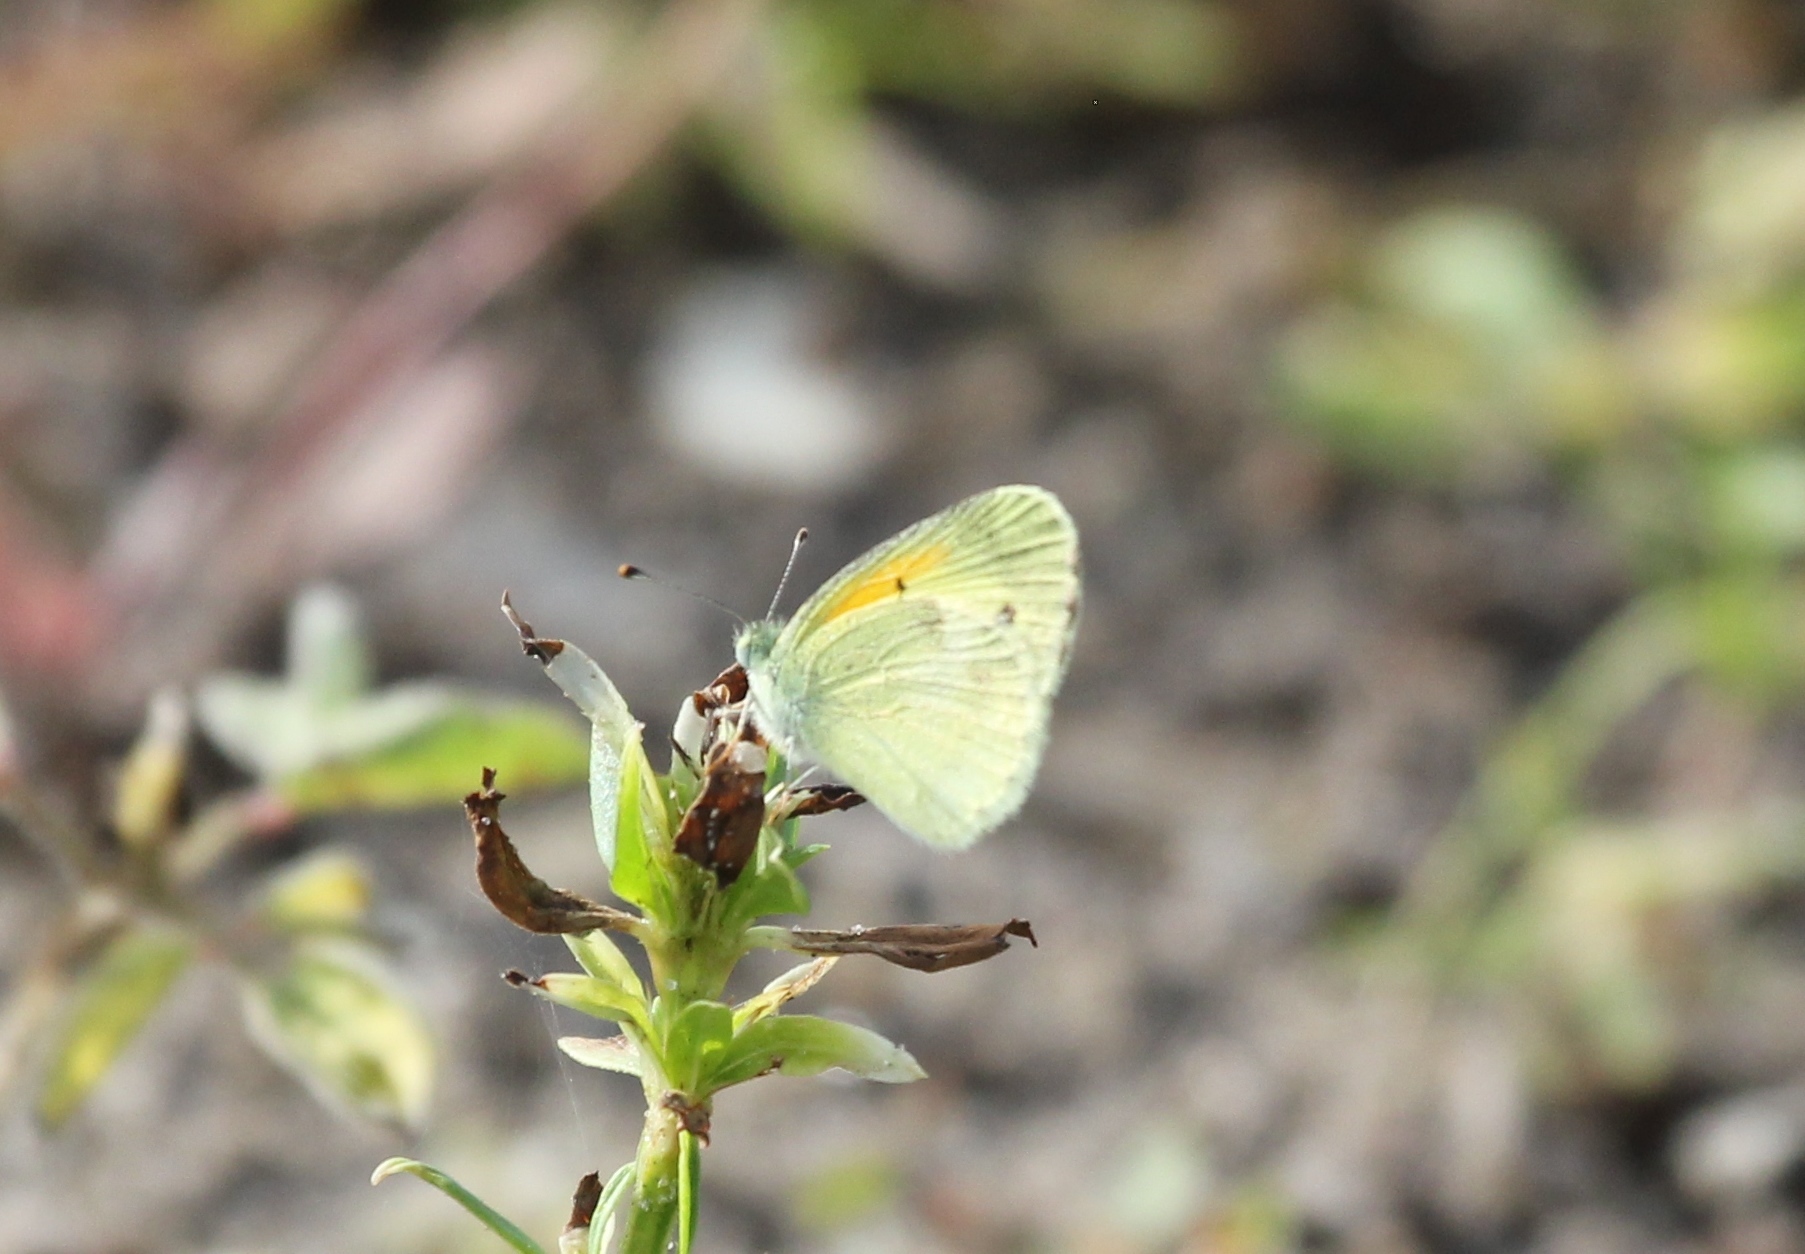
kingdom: Animalia
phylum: Arthropoda
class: Insecta
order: Lepidoptera
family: Pieridae
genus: Nathalis
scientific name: Nathalis iole
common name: Dainty sulphur
